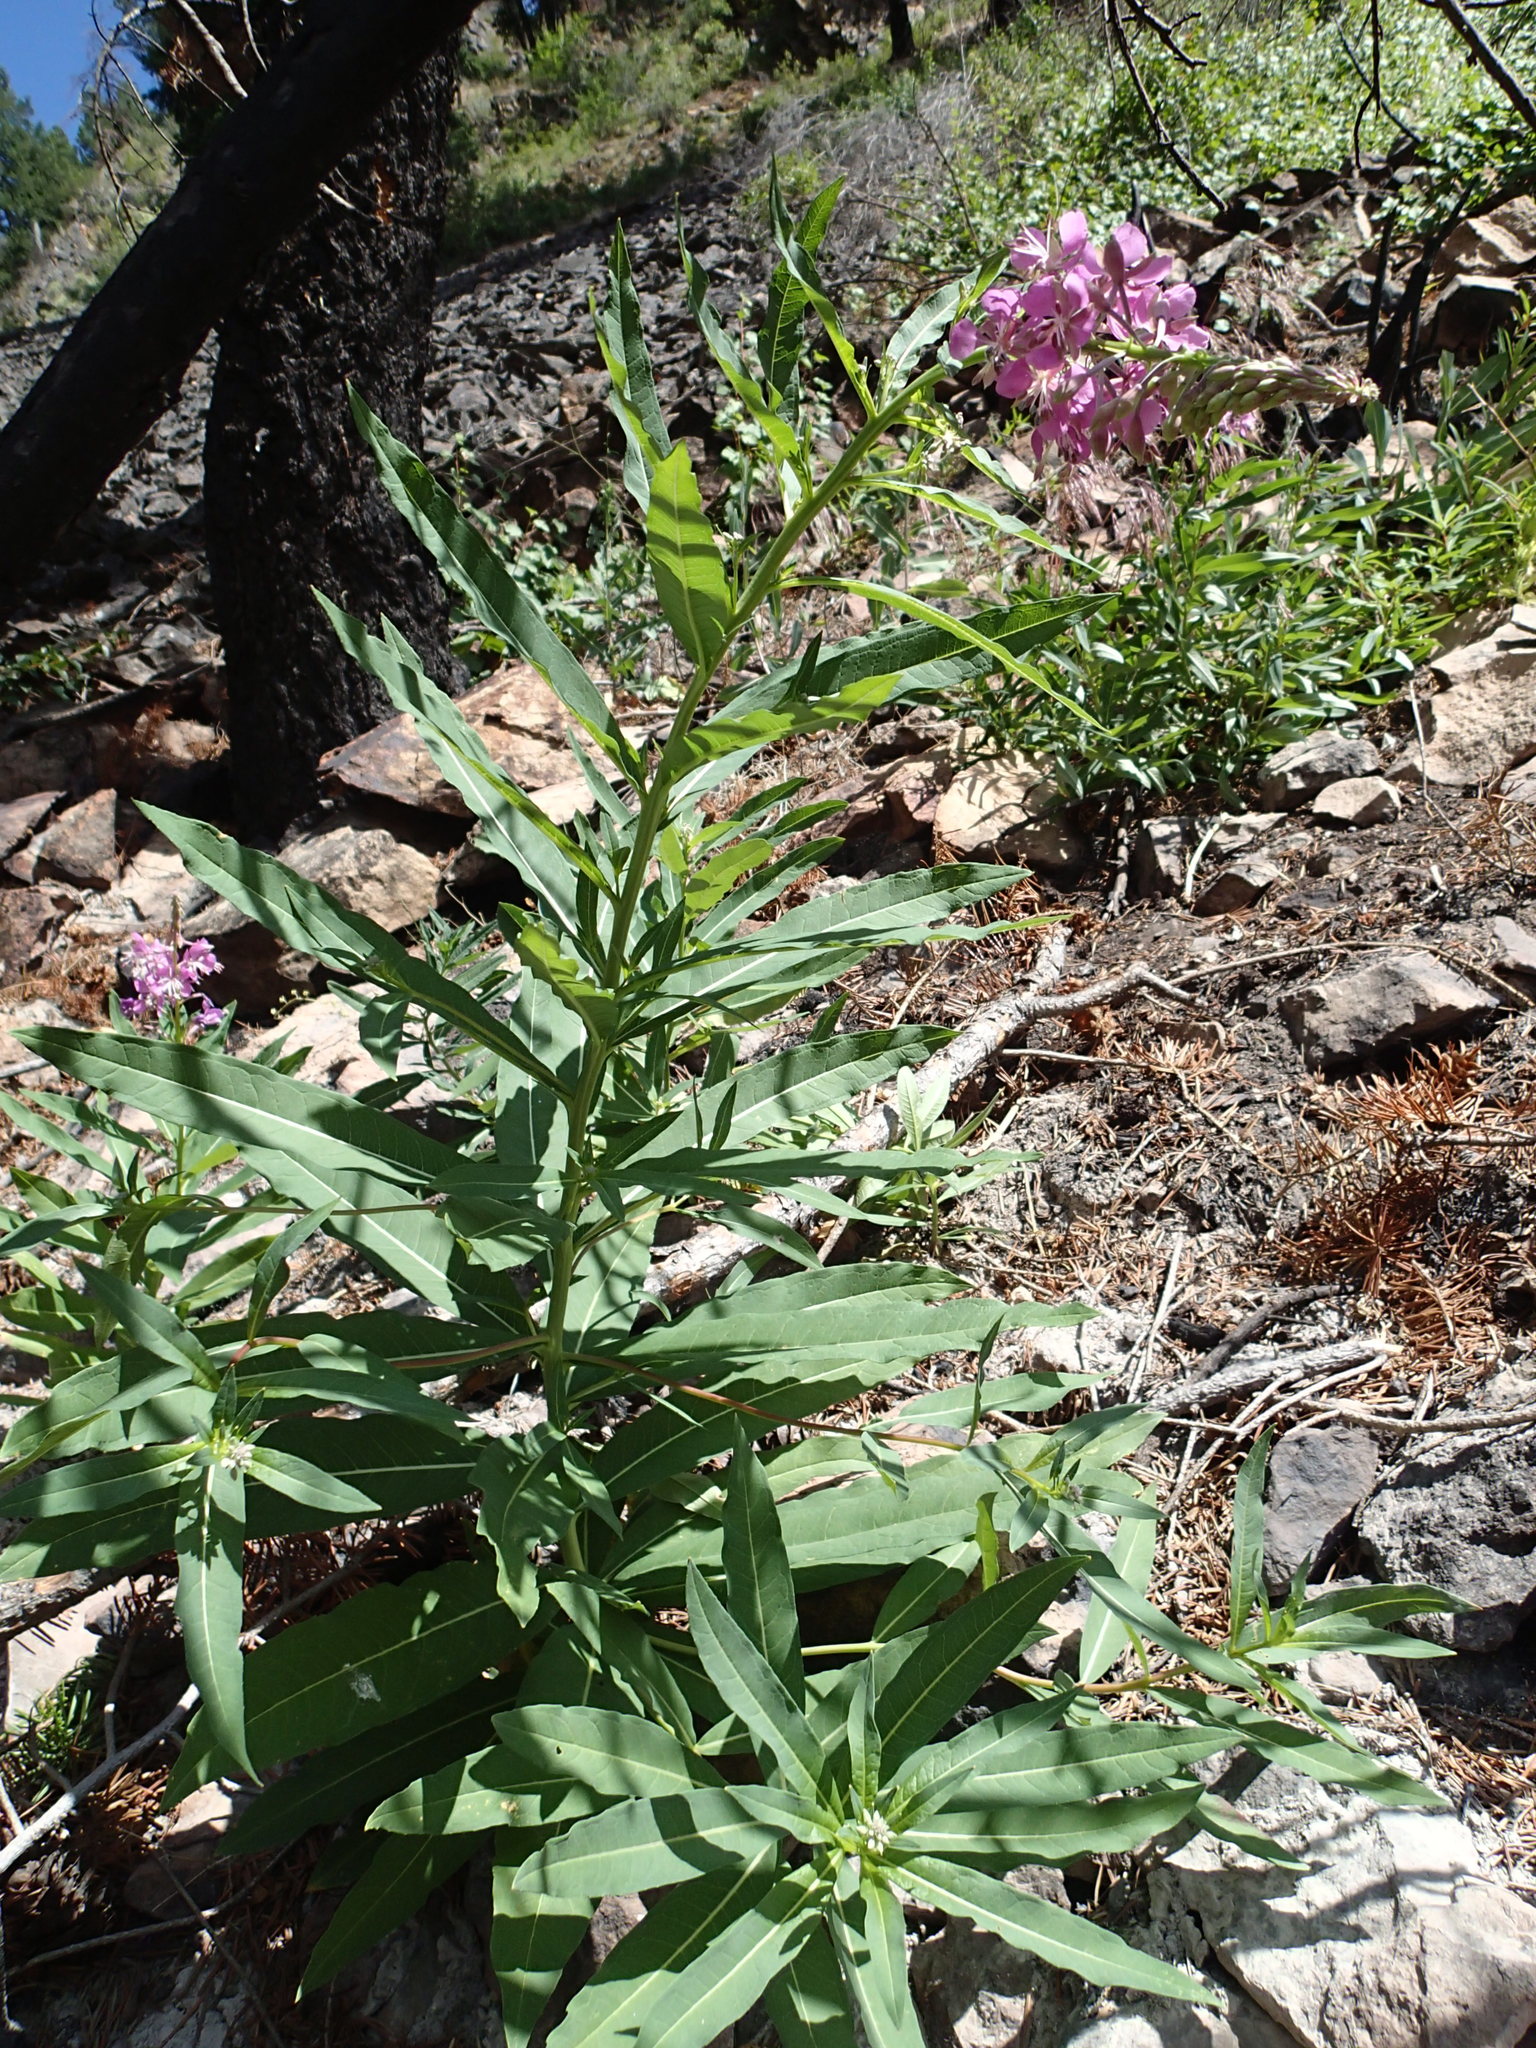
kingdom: Plantae
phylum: Tracheophyta
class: Magnoliopsida
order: Myrtales
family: Onagraceae
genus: Chamaenerion
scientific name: Chamaenerion angustifolium
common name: Fireweed
